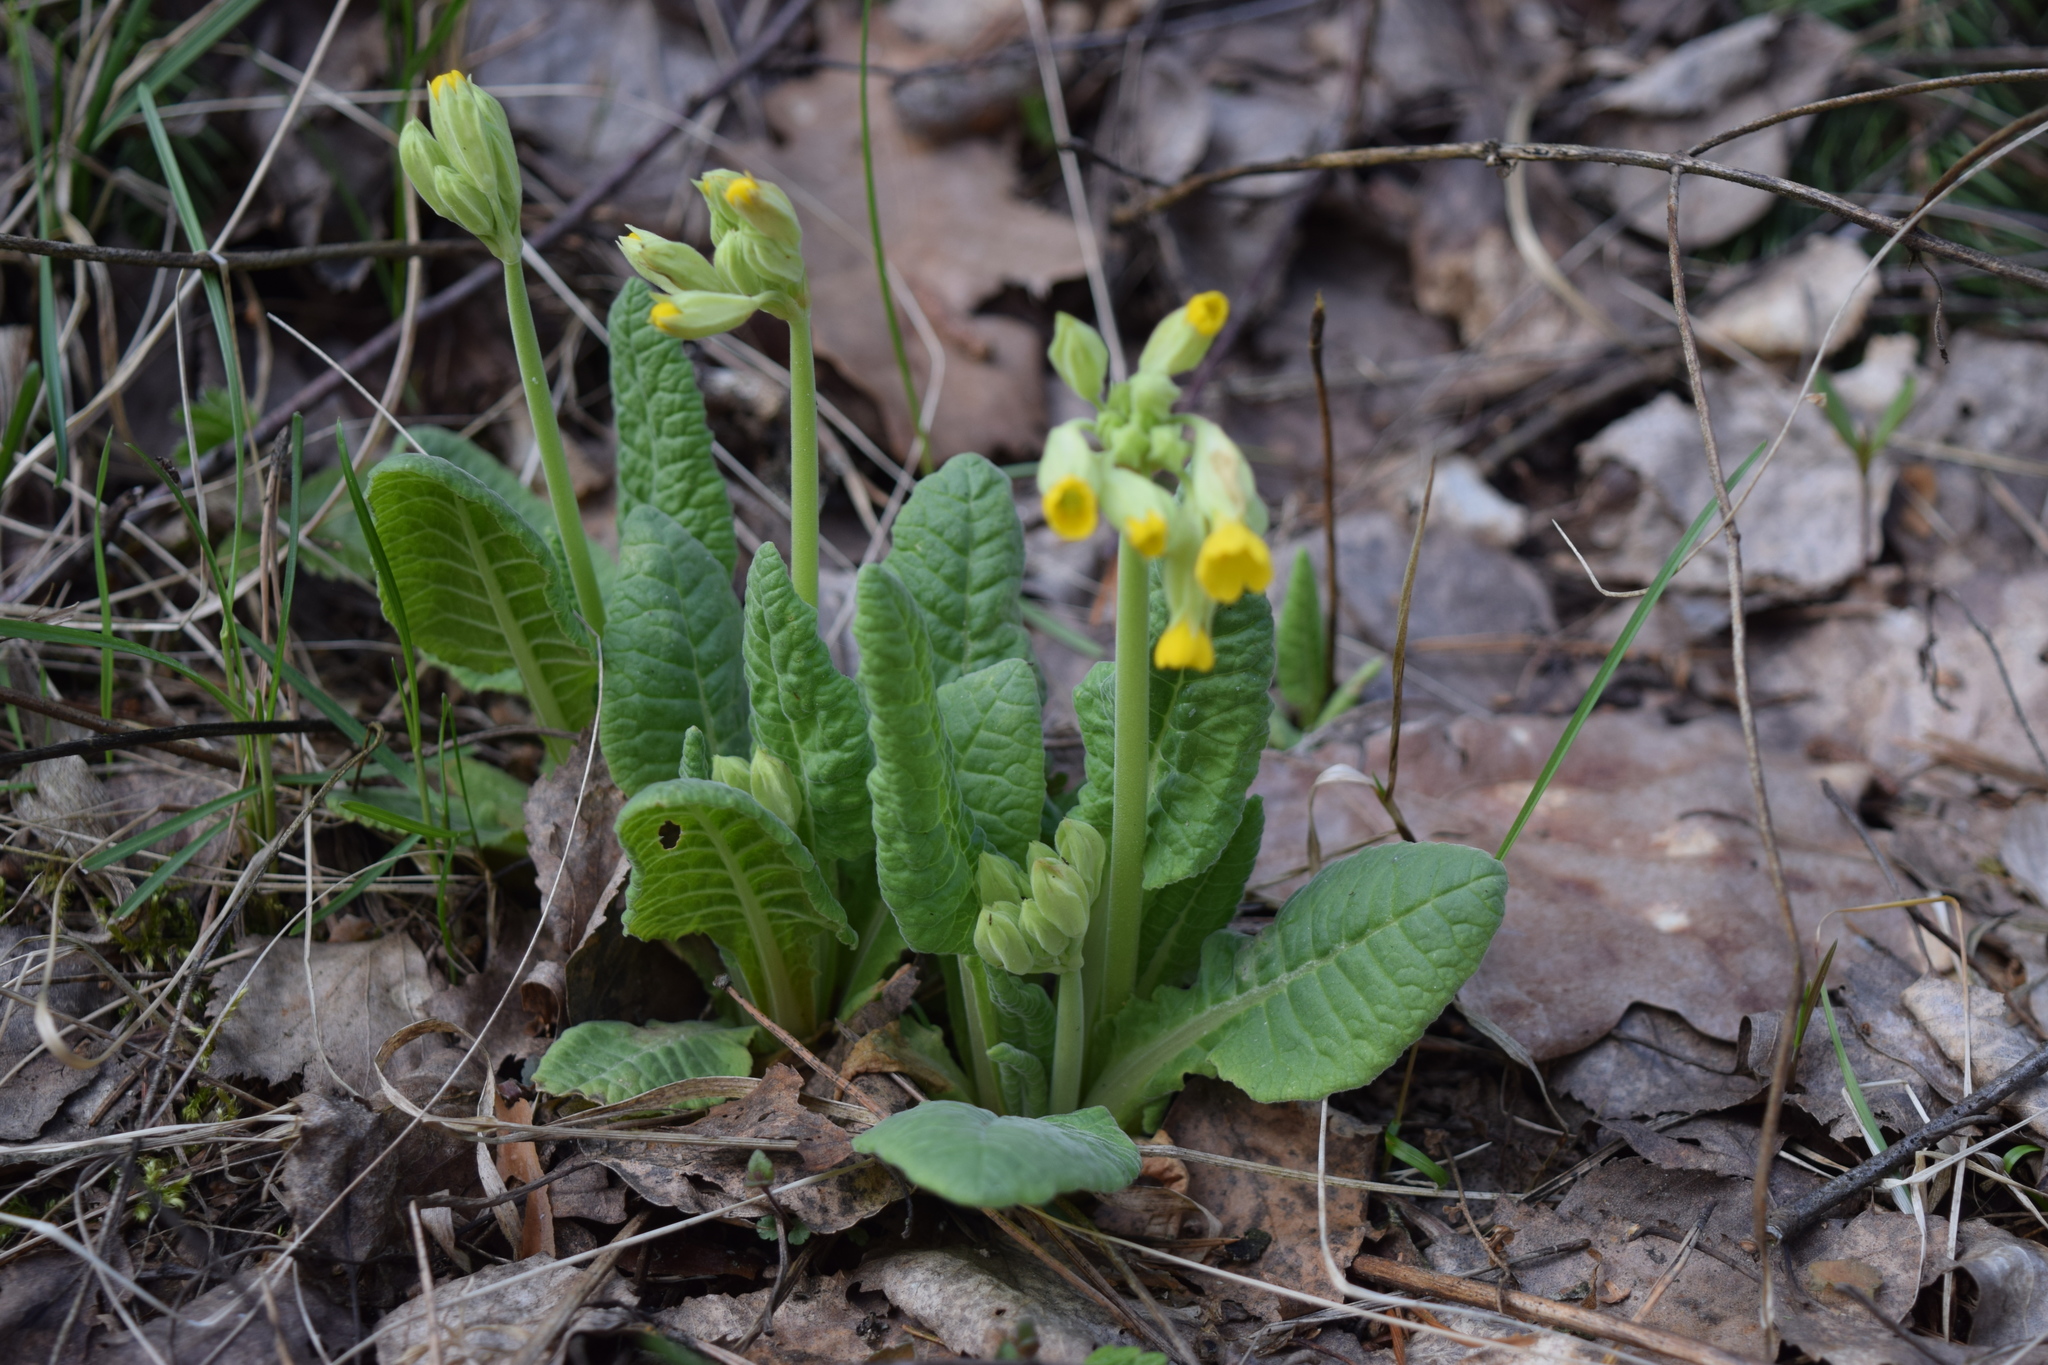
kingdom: Plantae
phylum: Tracheophyta
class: Magnoliopsida
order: Ericales
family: Primulaceae
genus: Primula
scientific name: Primula veris
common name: Cowslip
